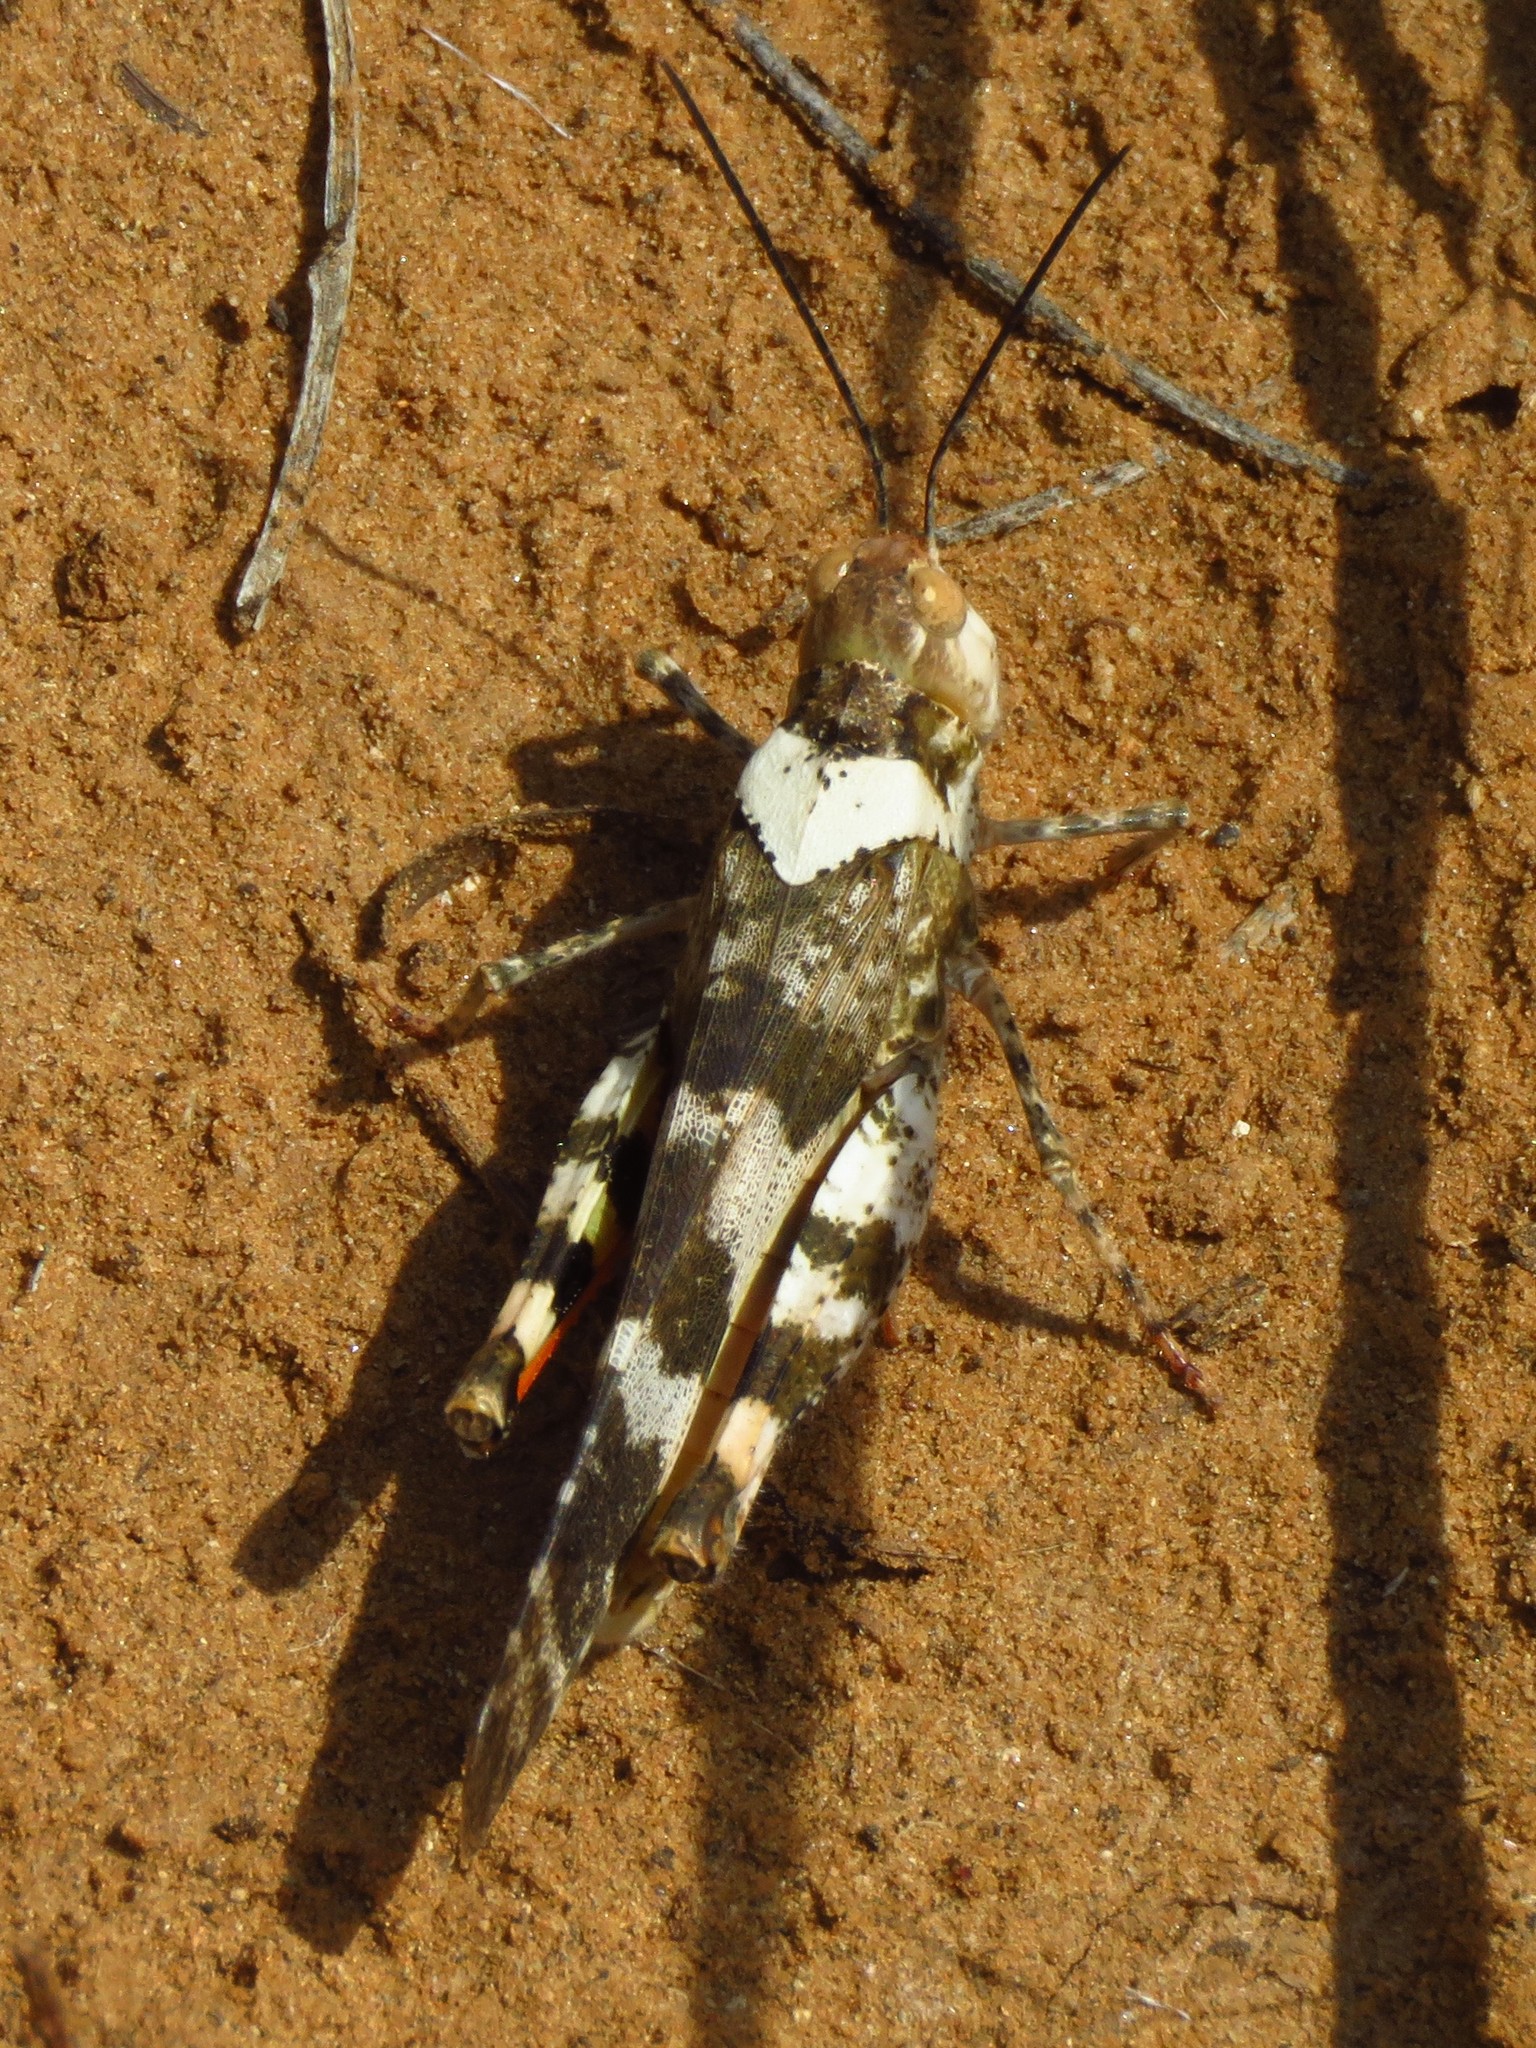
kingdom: Animalia
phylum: Arthropoda
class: Insecta
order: Orthoptera
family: Acrididae
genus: Spharagemon
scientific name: Spharagemon equale
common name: Orange-legged grasshopper
